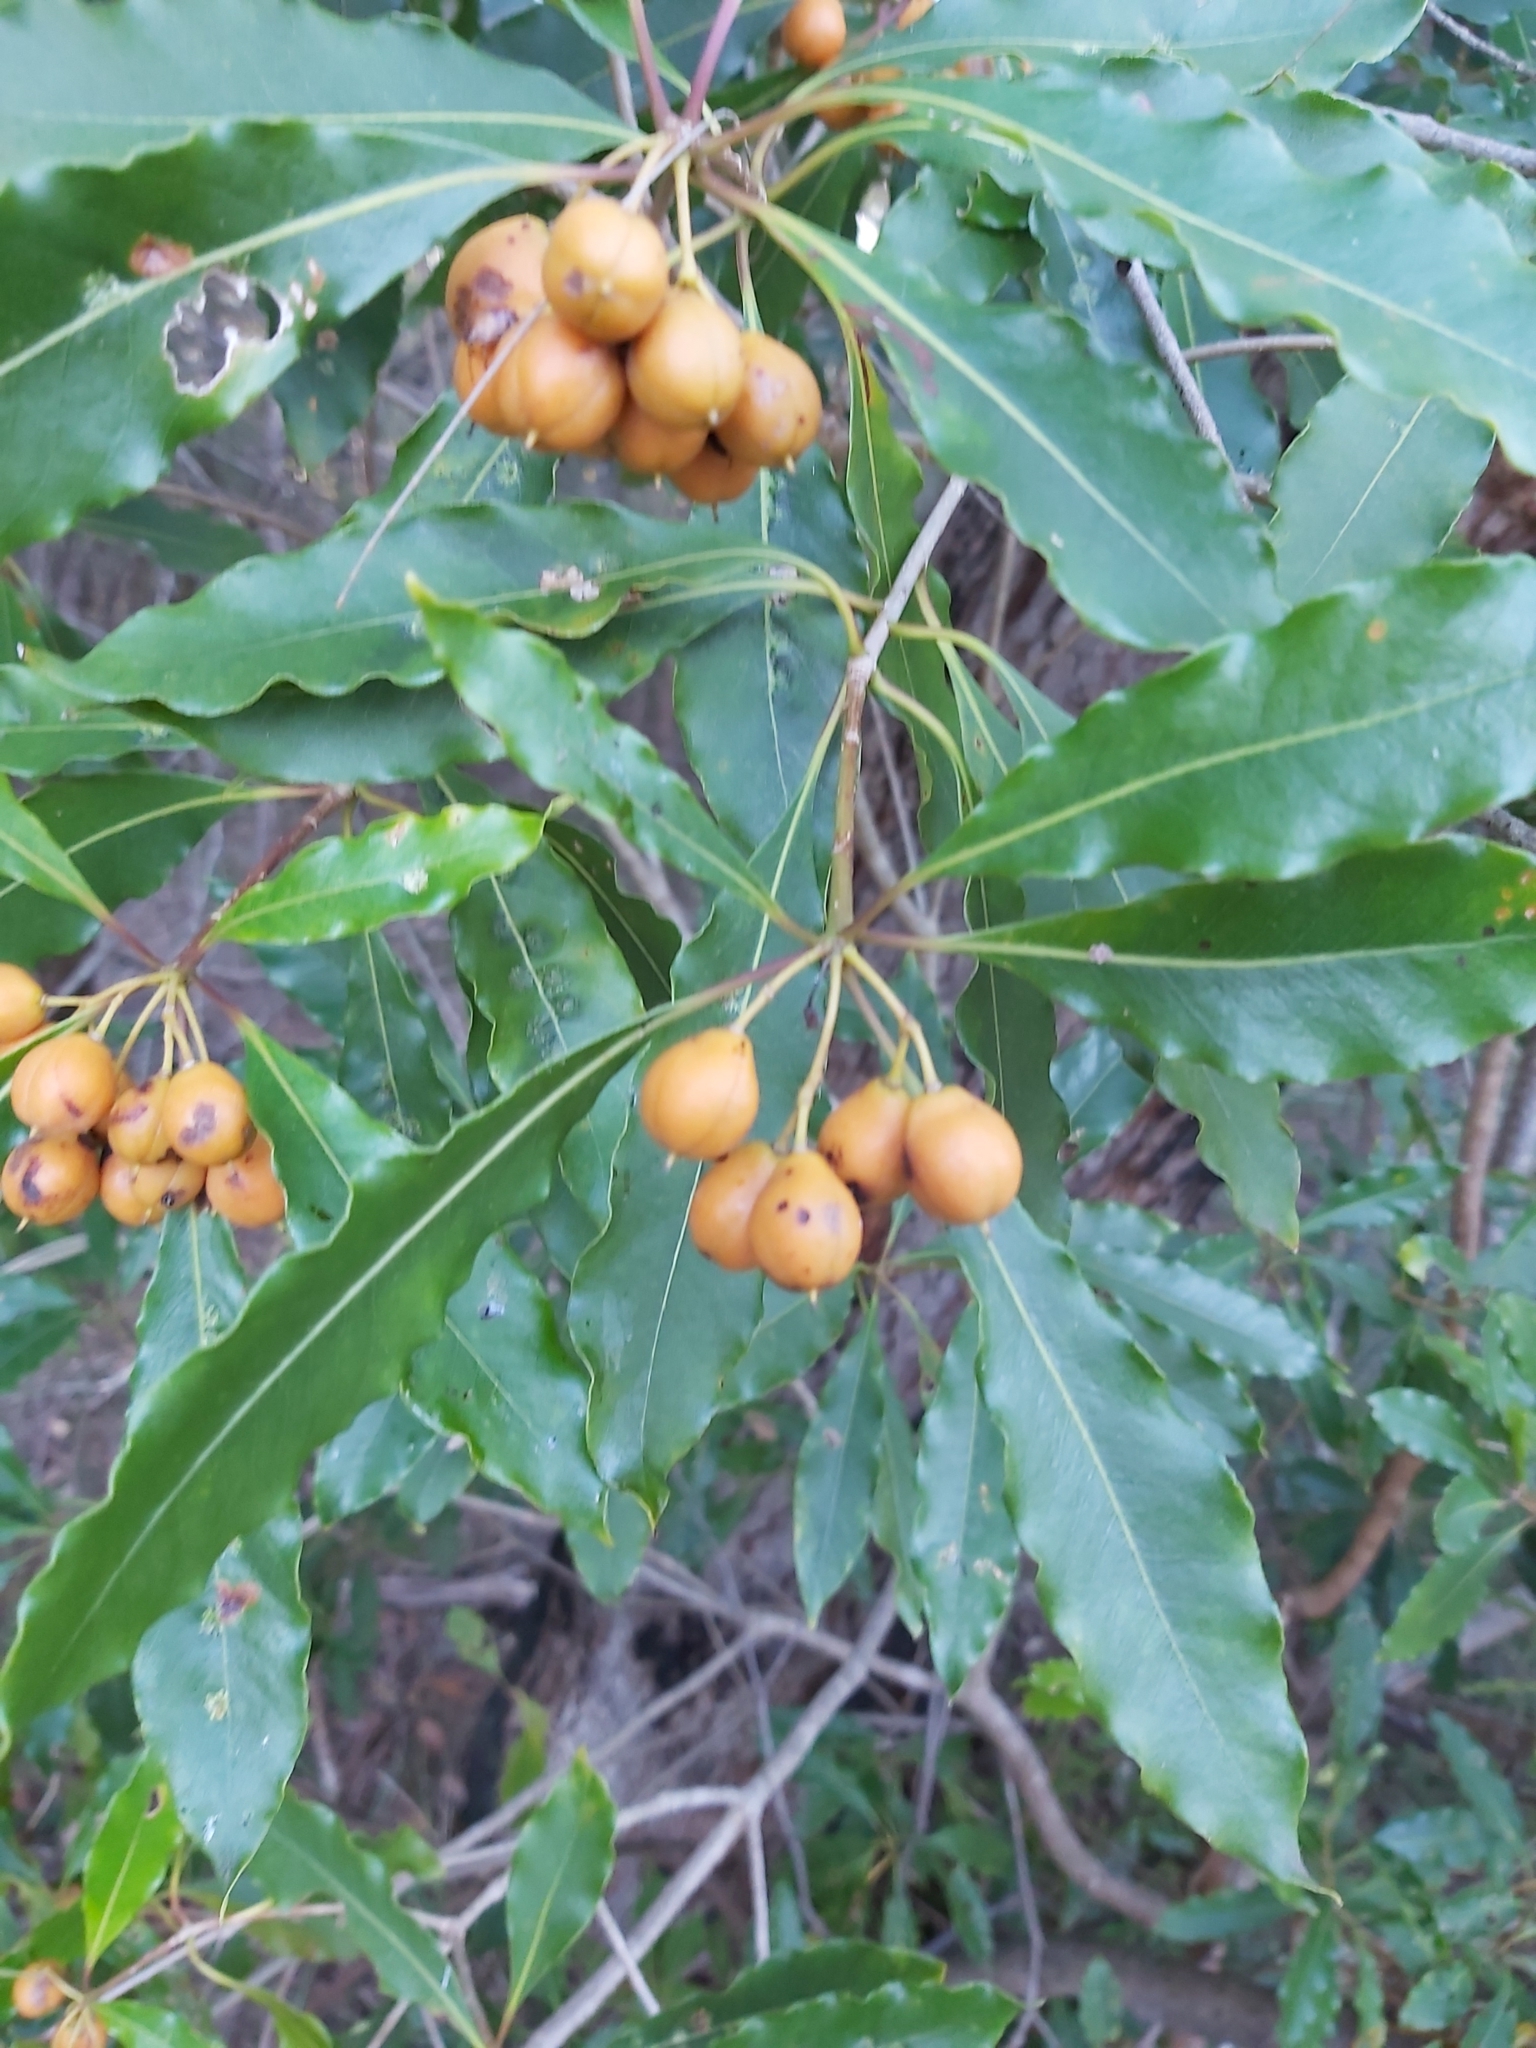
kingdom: Plantae
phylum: Tracheophyta
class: Magnoliopsida
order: Apiales
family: Pittosporaceae
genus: Pittosporum
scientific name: Pittosporum undulatum
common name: Australian cheesewood
